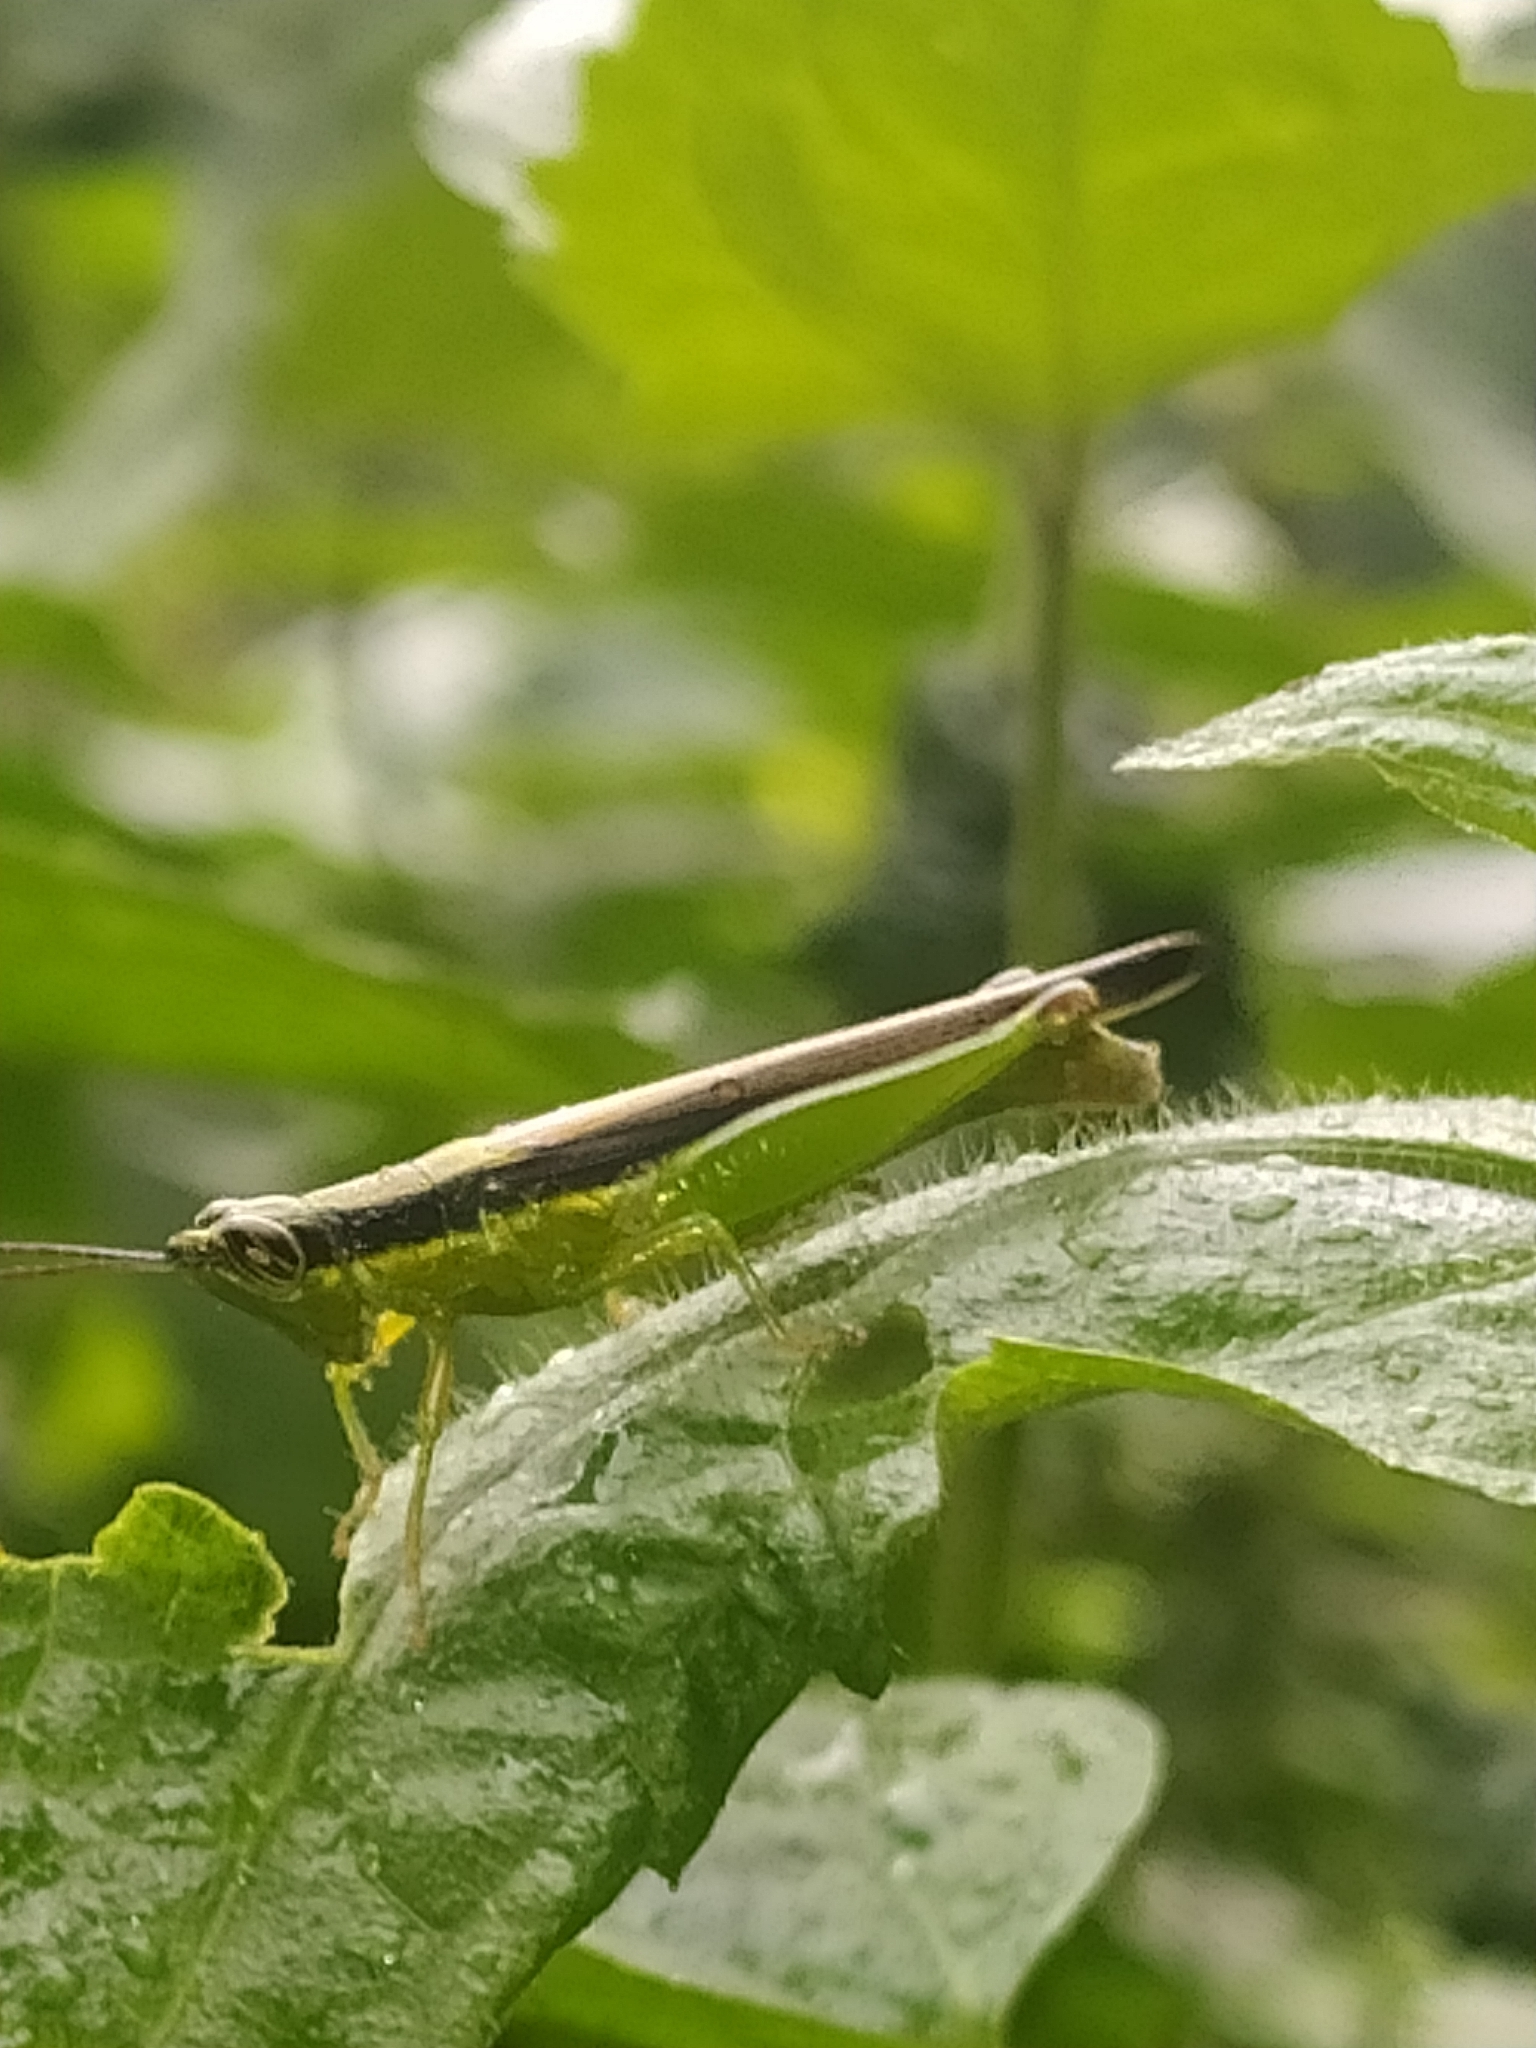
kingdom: Animalia
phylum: Arthropoda
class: Insecta
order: Orthoptera
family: Acrididae
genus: Stenopola
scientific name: Stenopola puncticeps
